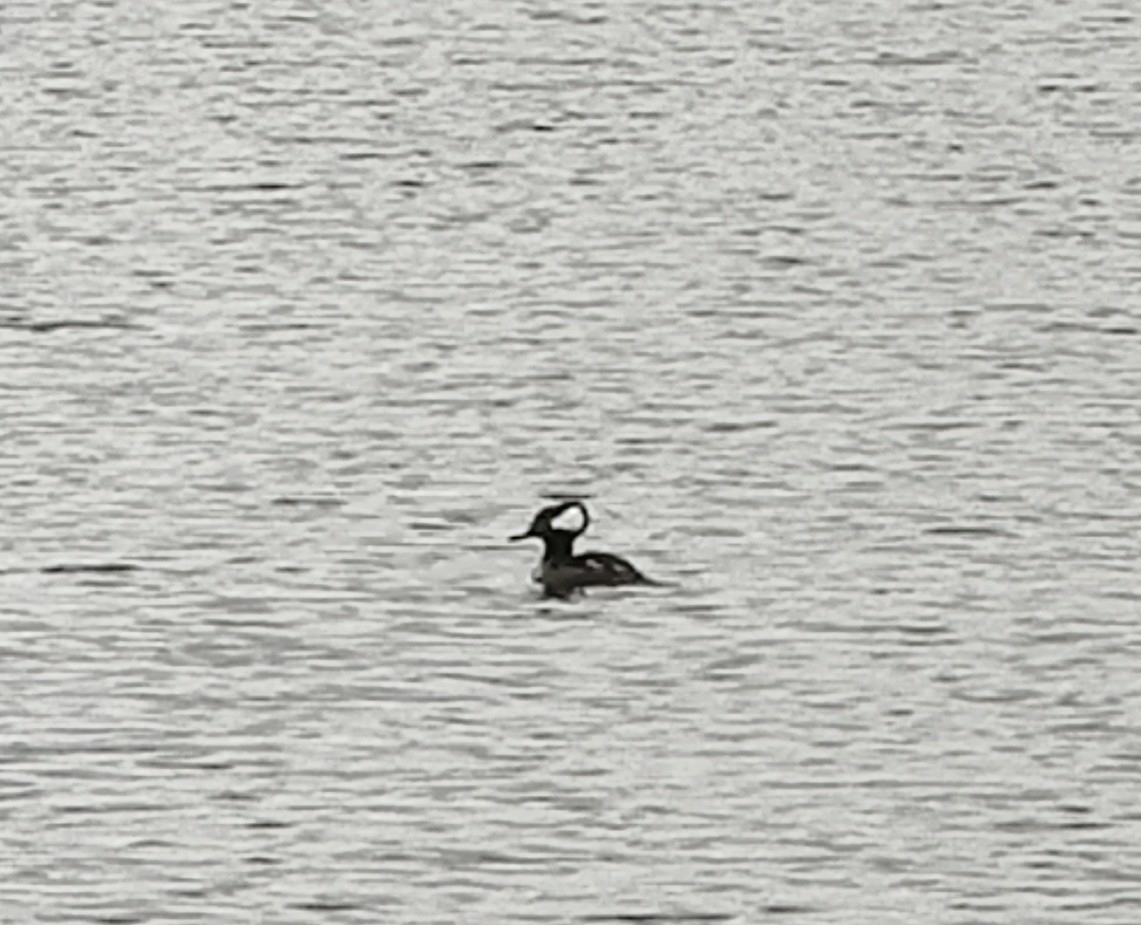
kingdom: Animalia
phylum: Chordata
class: Aves
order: Anseriformes
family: Anatidae
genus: Lophodytes
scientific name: Lophodytes cucullatus
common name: Hooded merganser
